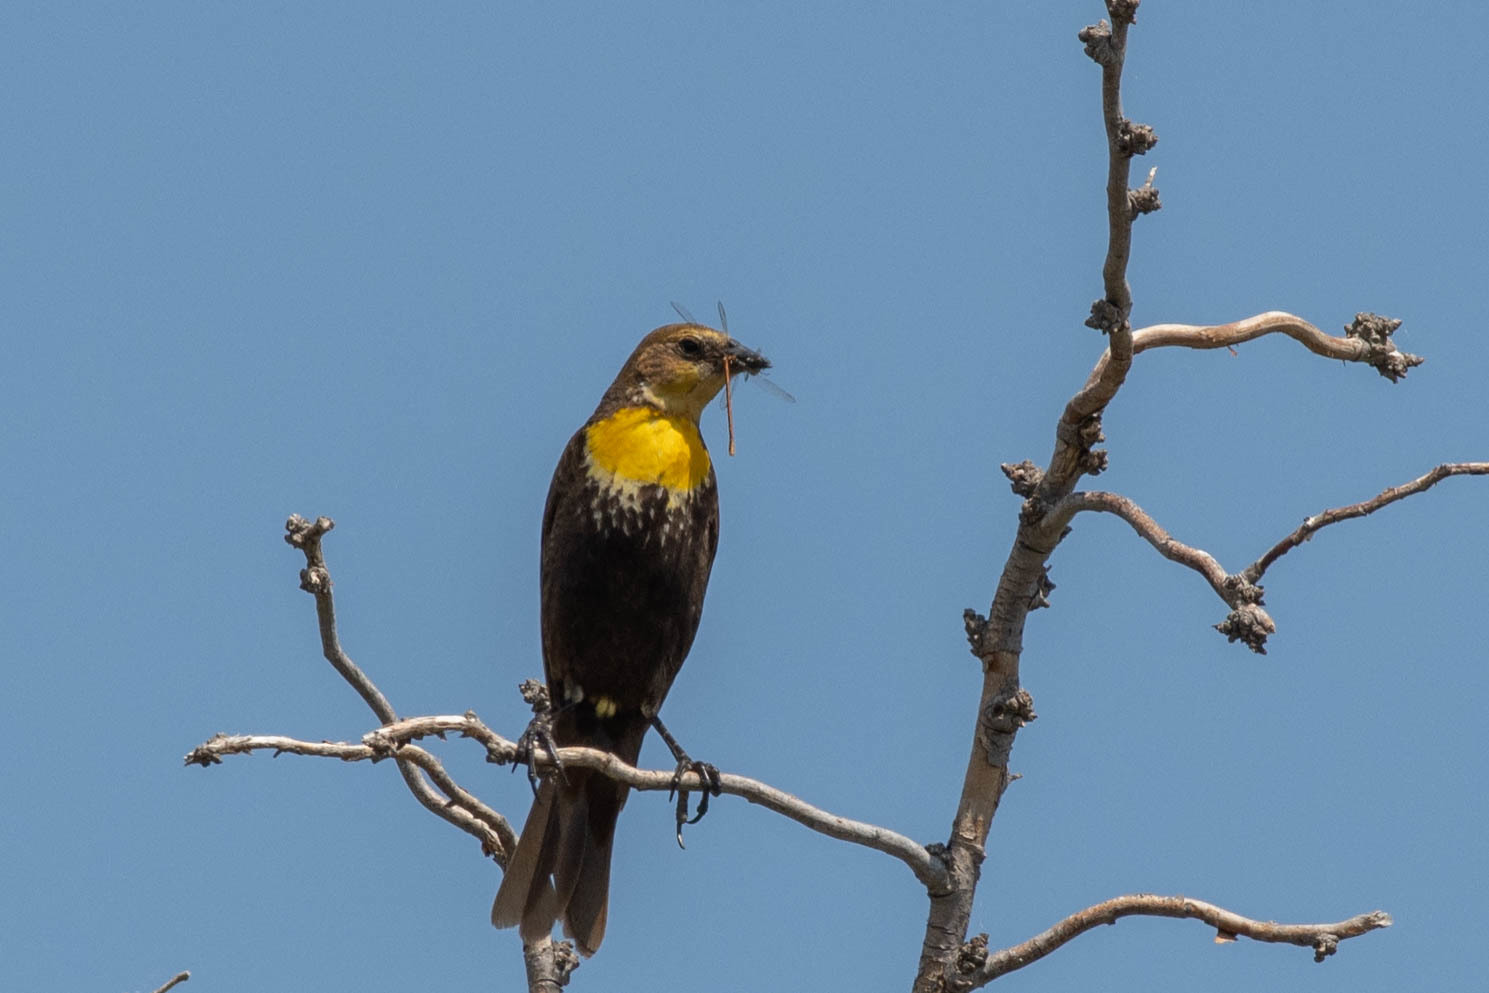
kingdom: Animalia
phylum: Chordata
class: Aves
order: Passeriformes
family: Icteridae
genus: Xanthocephalus
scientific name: Xanthocephalus xanthocephalus
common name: Yellow-headed blackbird
